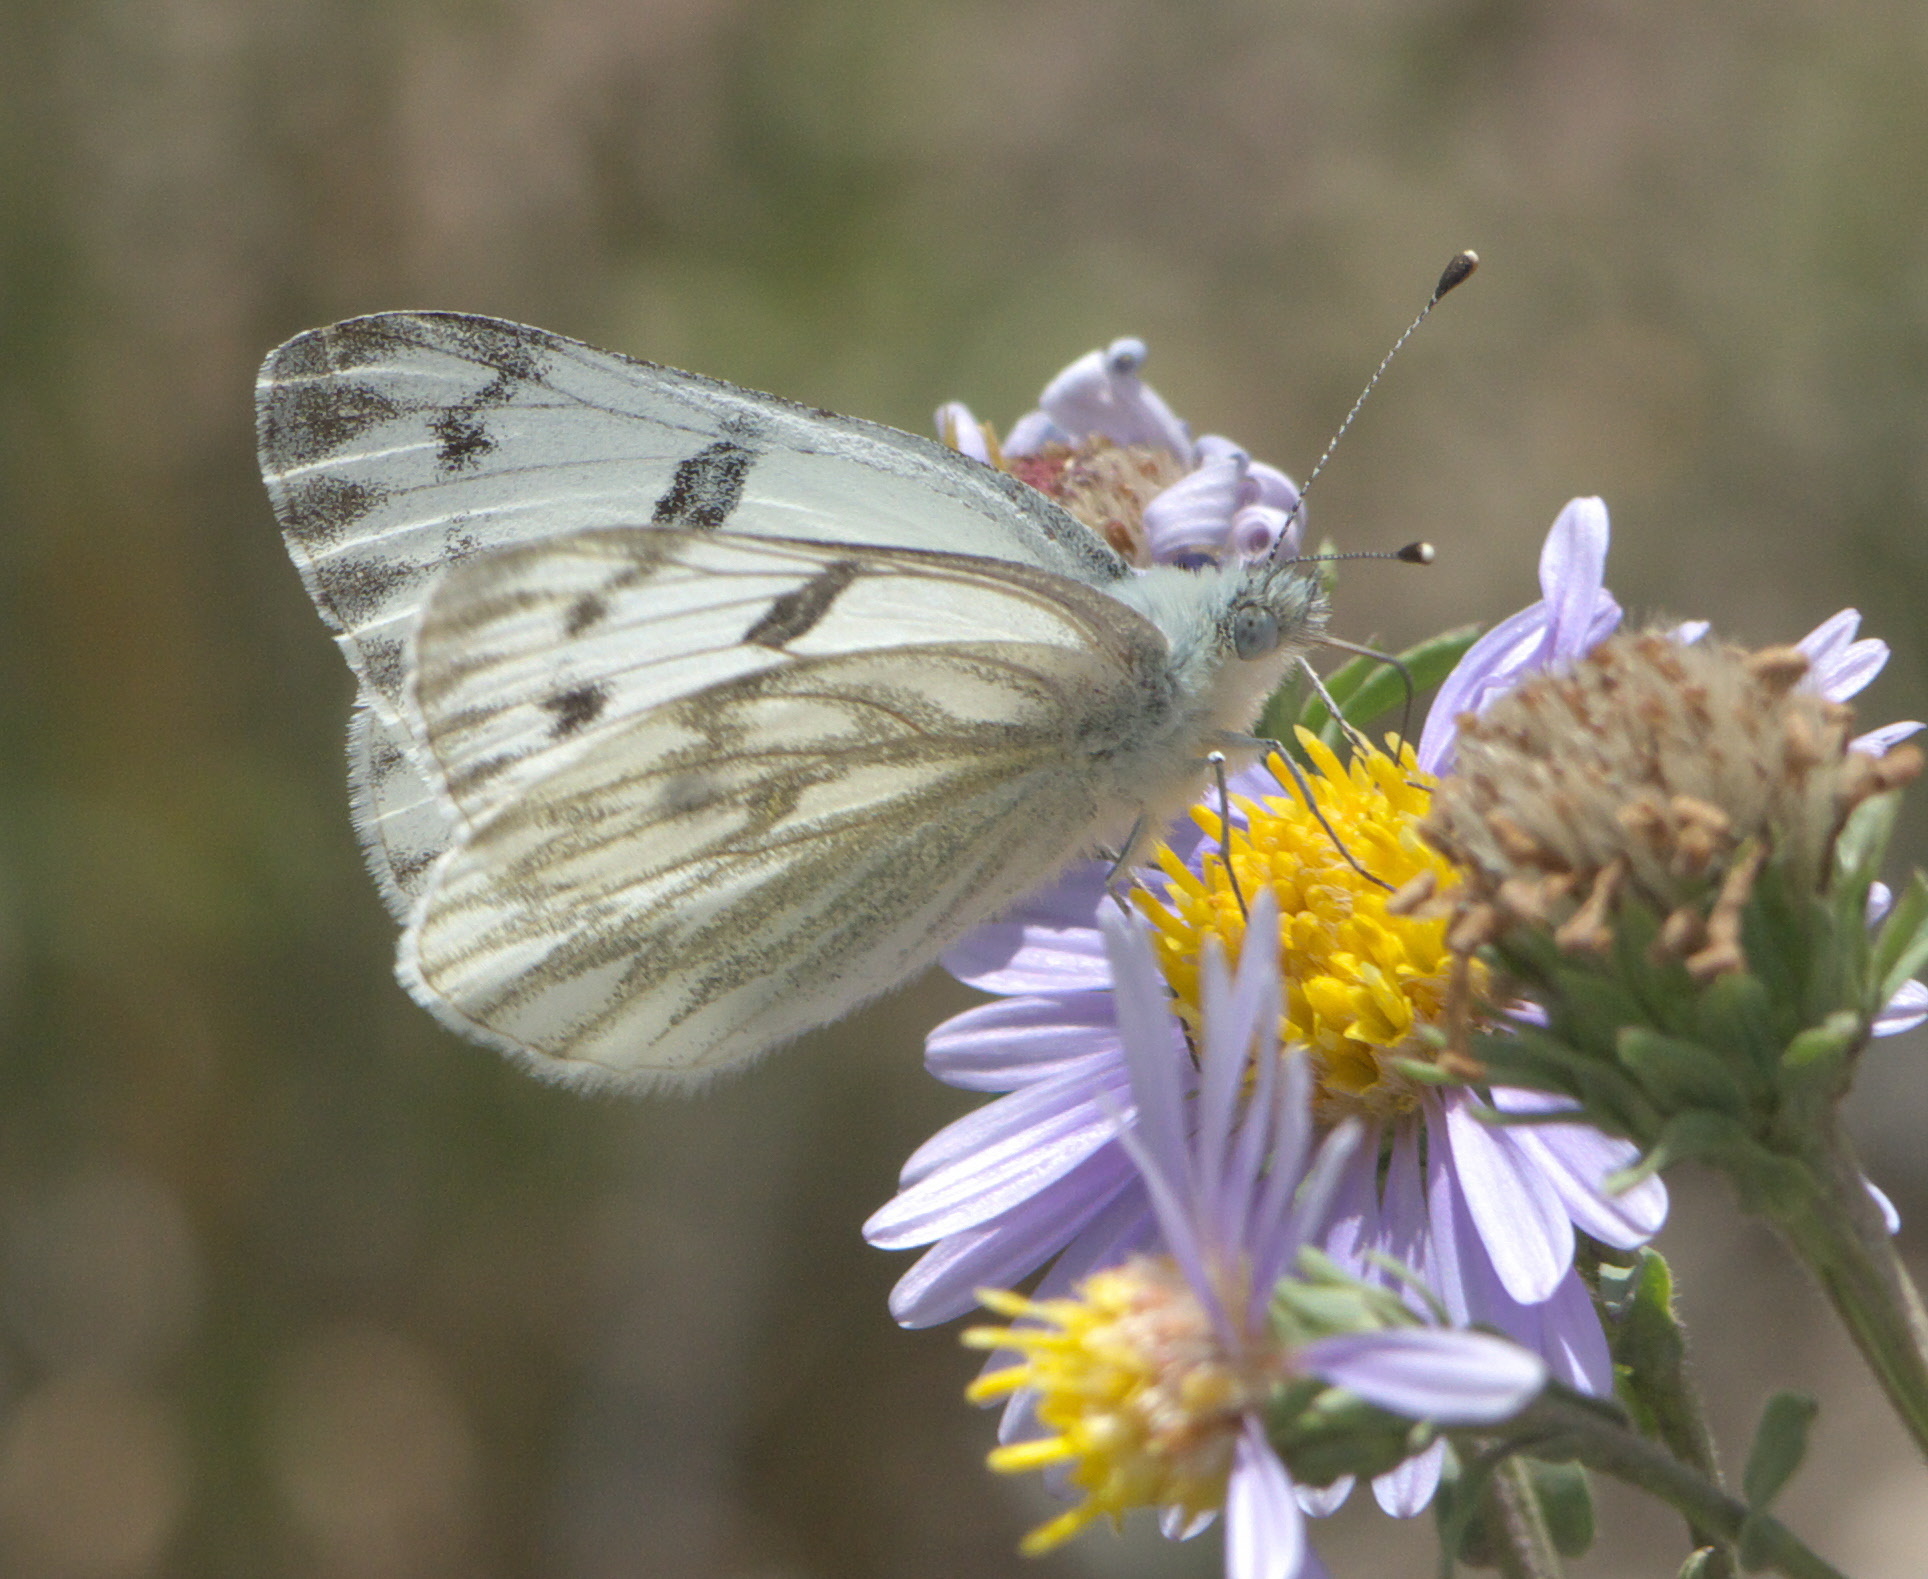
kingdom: Animalia
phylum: Arthropoda
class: Insecta
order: Lepidoptera
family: Pieridae
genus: Pontia
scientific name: Pontia occidentalis
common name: Western white
